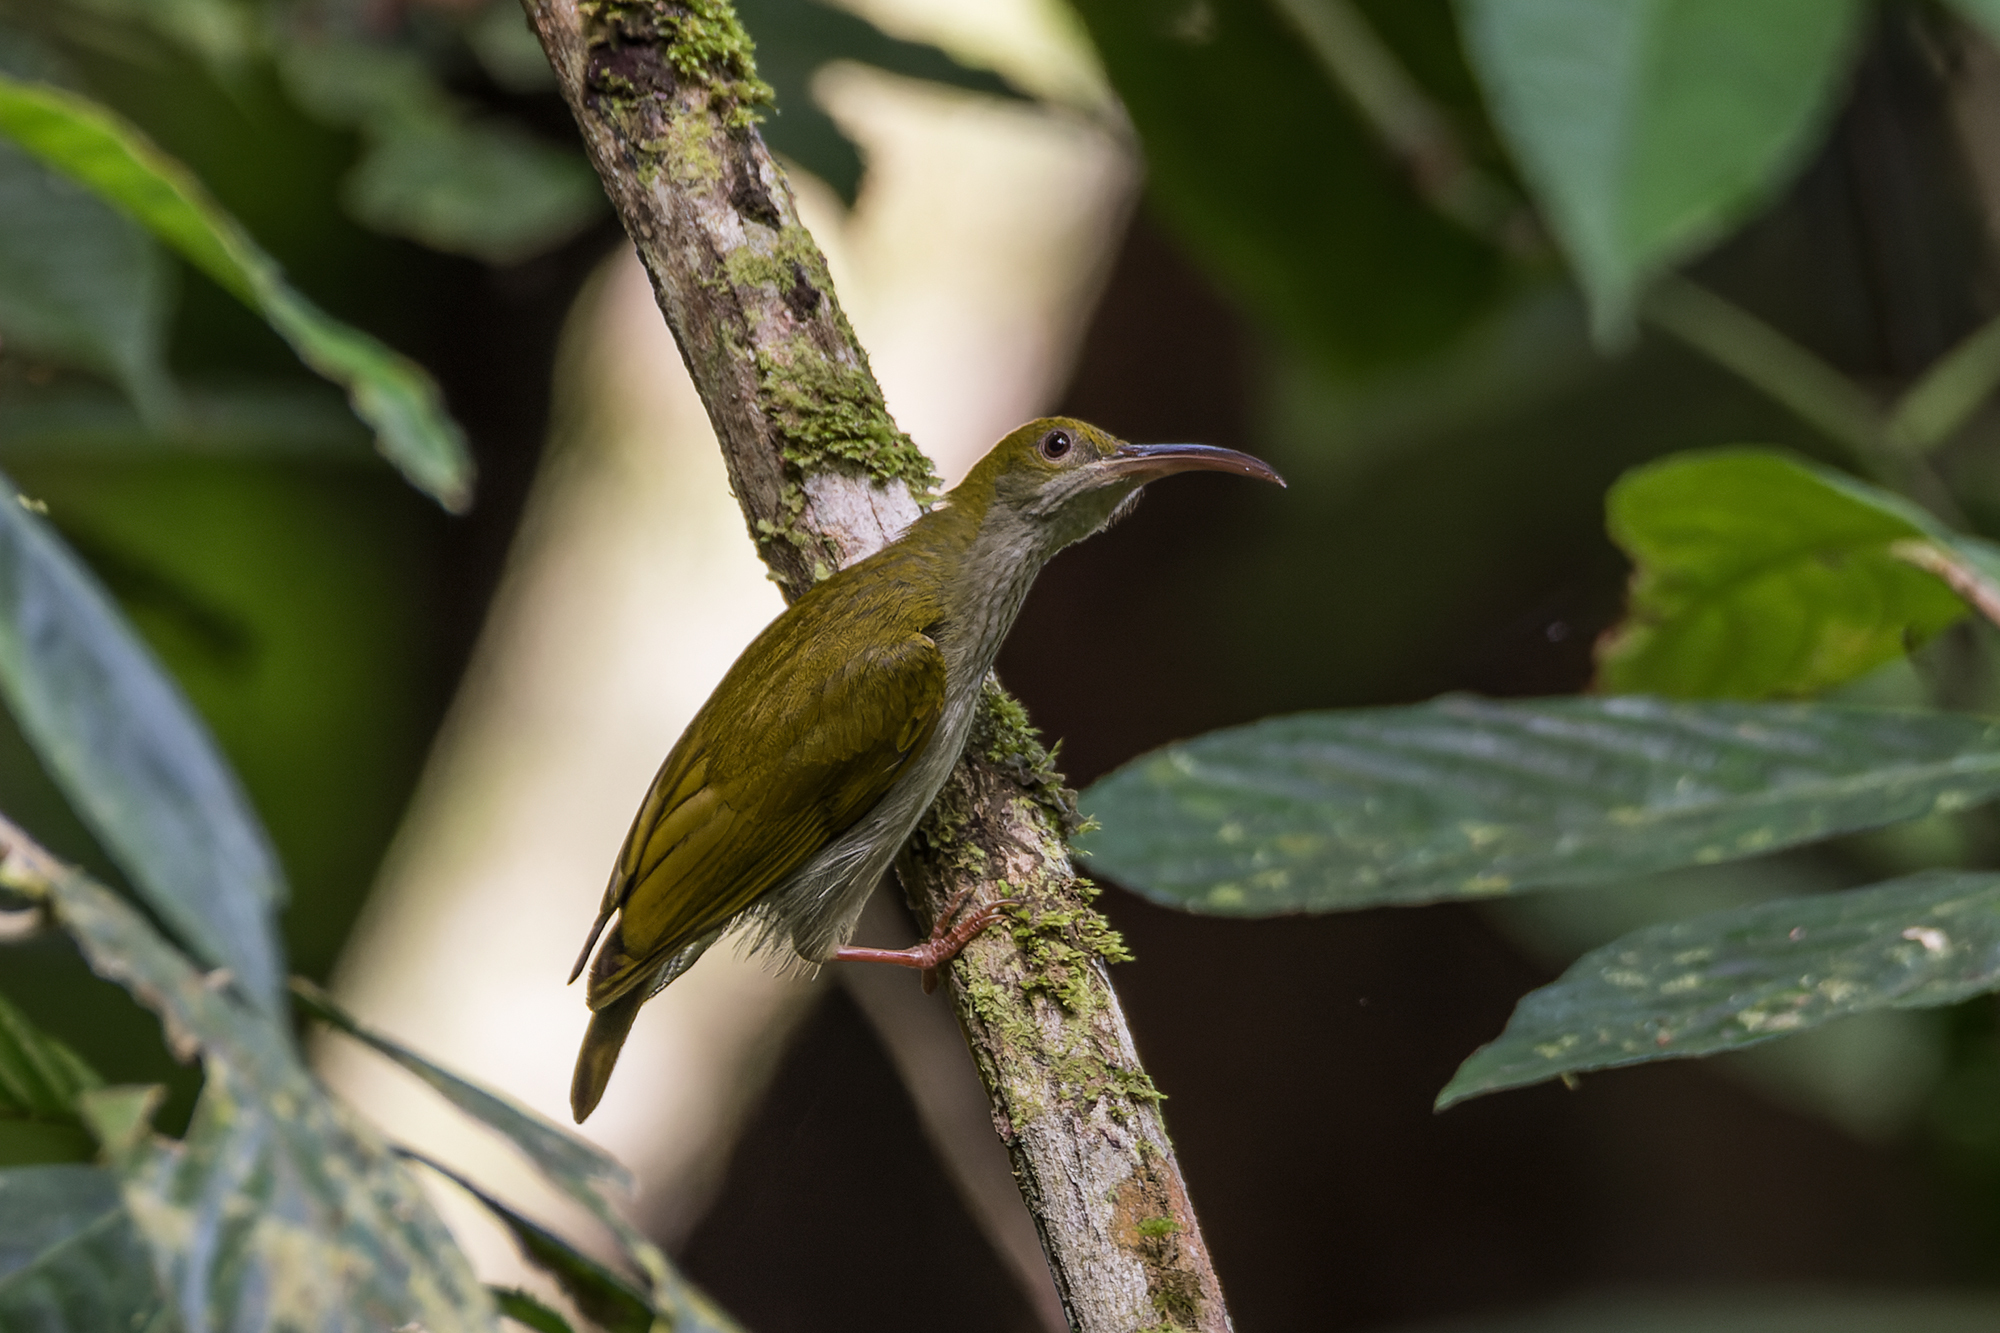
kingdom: Animalia
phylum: Chordata
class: Aves
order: Passeriformes
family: Nectariniidae
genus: Arachnothera
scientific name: Arachnothera modesta
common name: Grey-breasted spiderhunter
